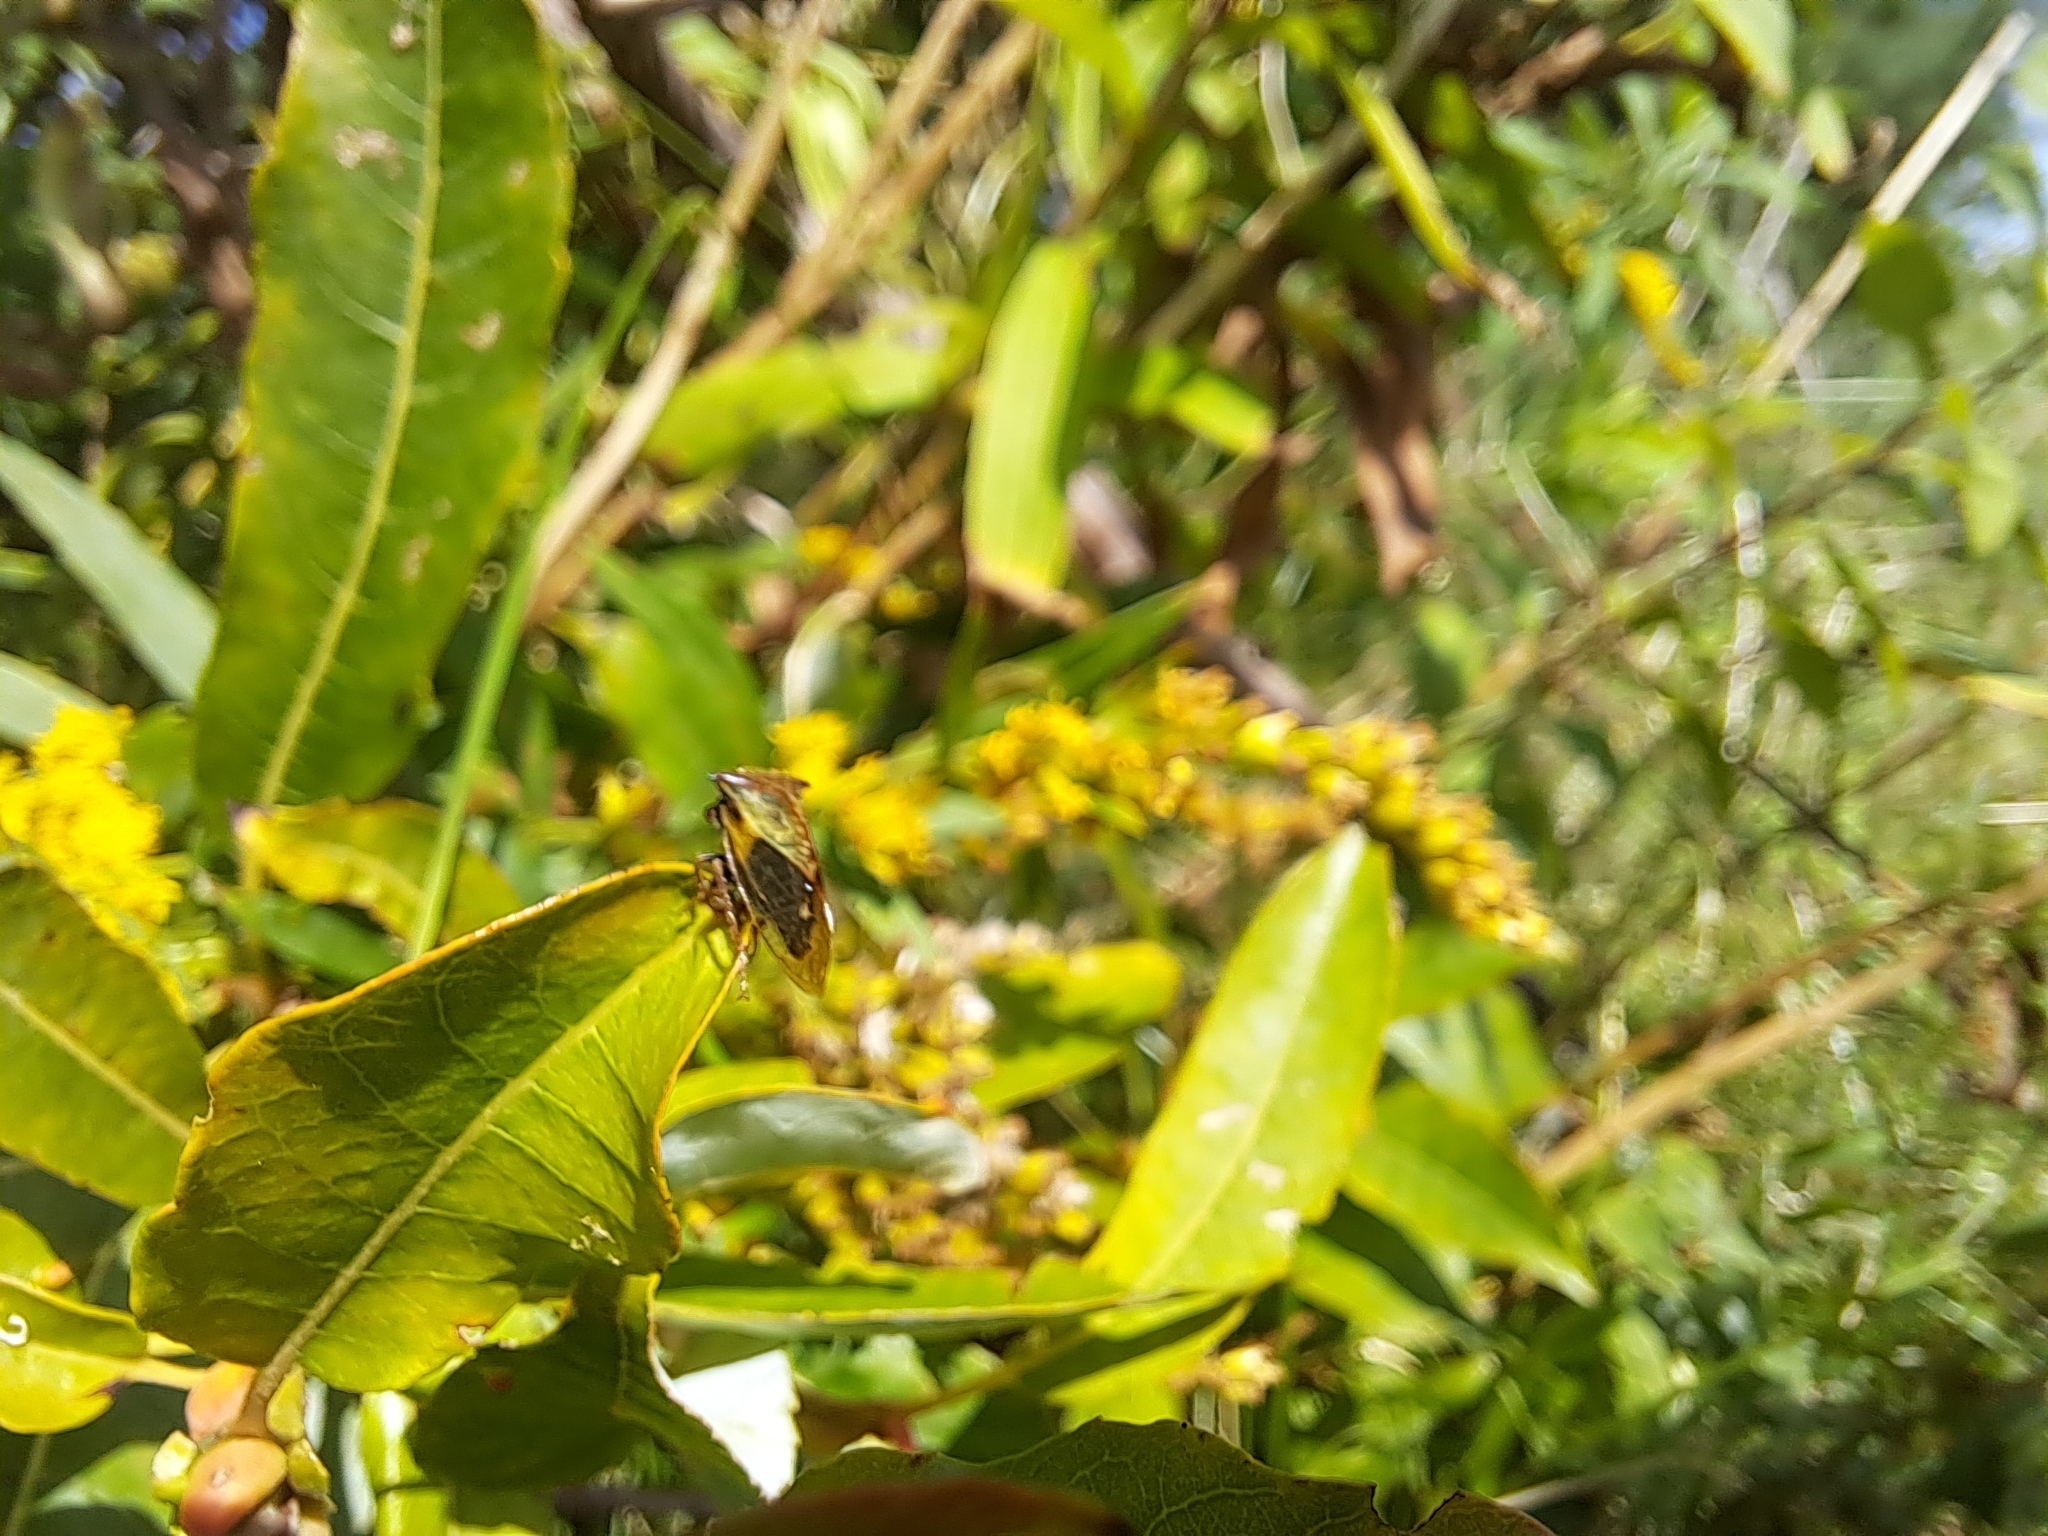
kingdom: Animalia
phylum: Arthropoda
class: Insecta
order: Hemiptera
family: Membracidae
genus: Stictocephala
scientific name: Stictocephala basalis
